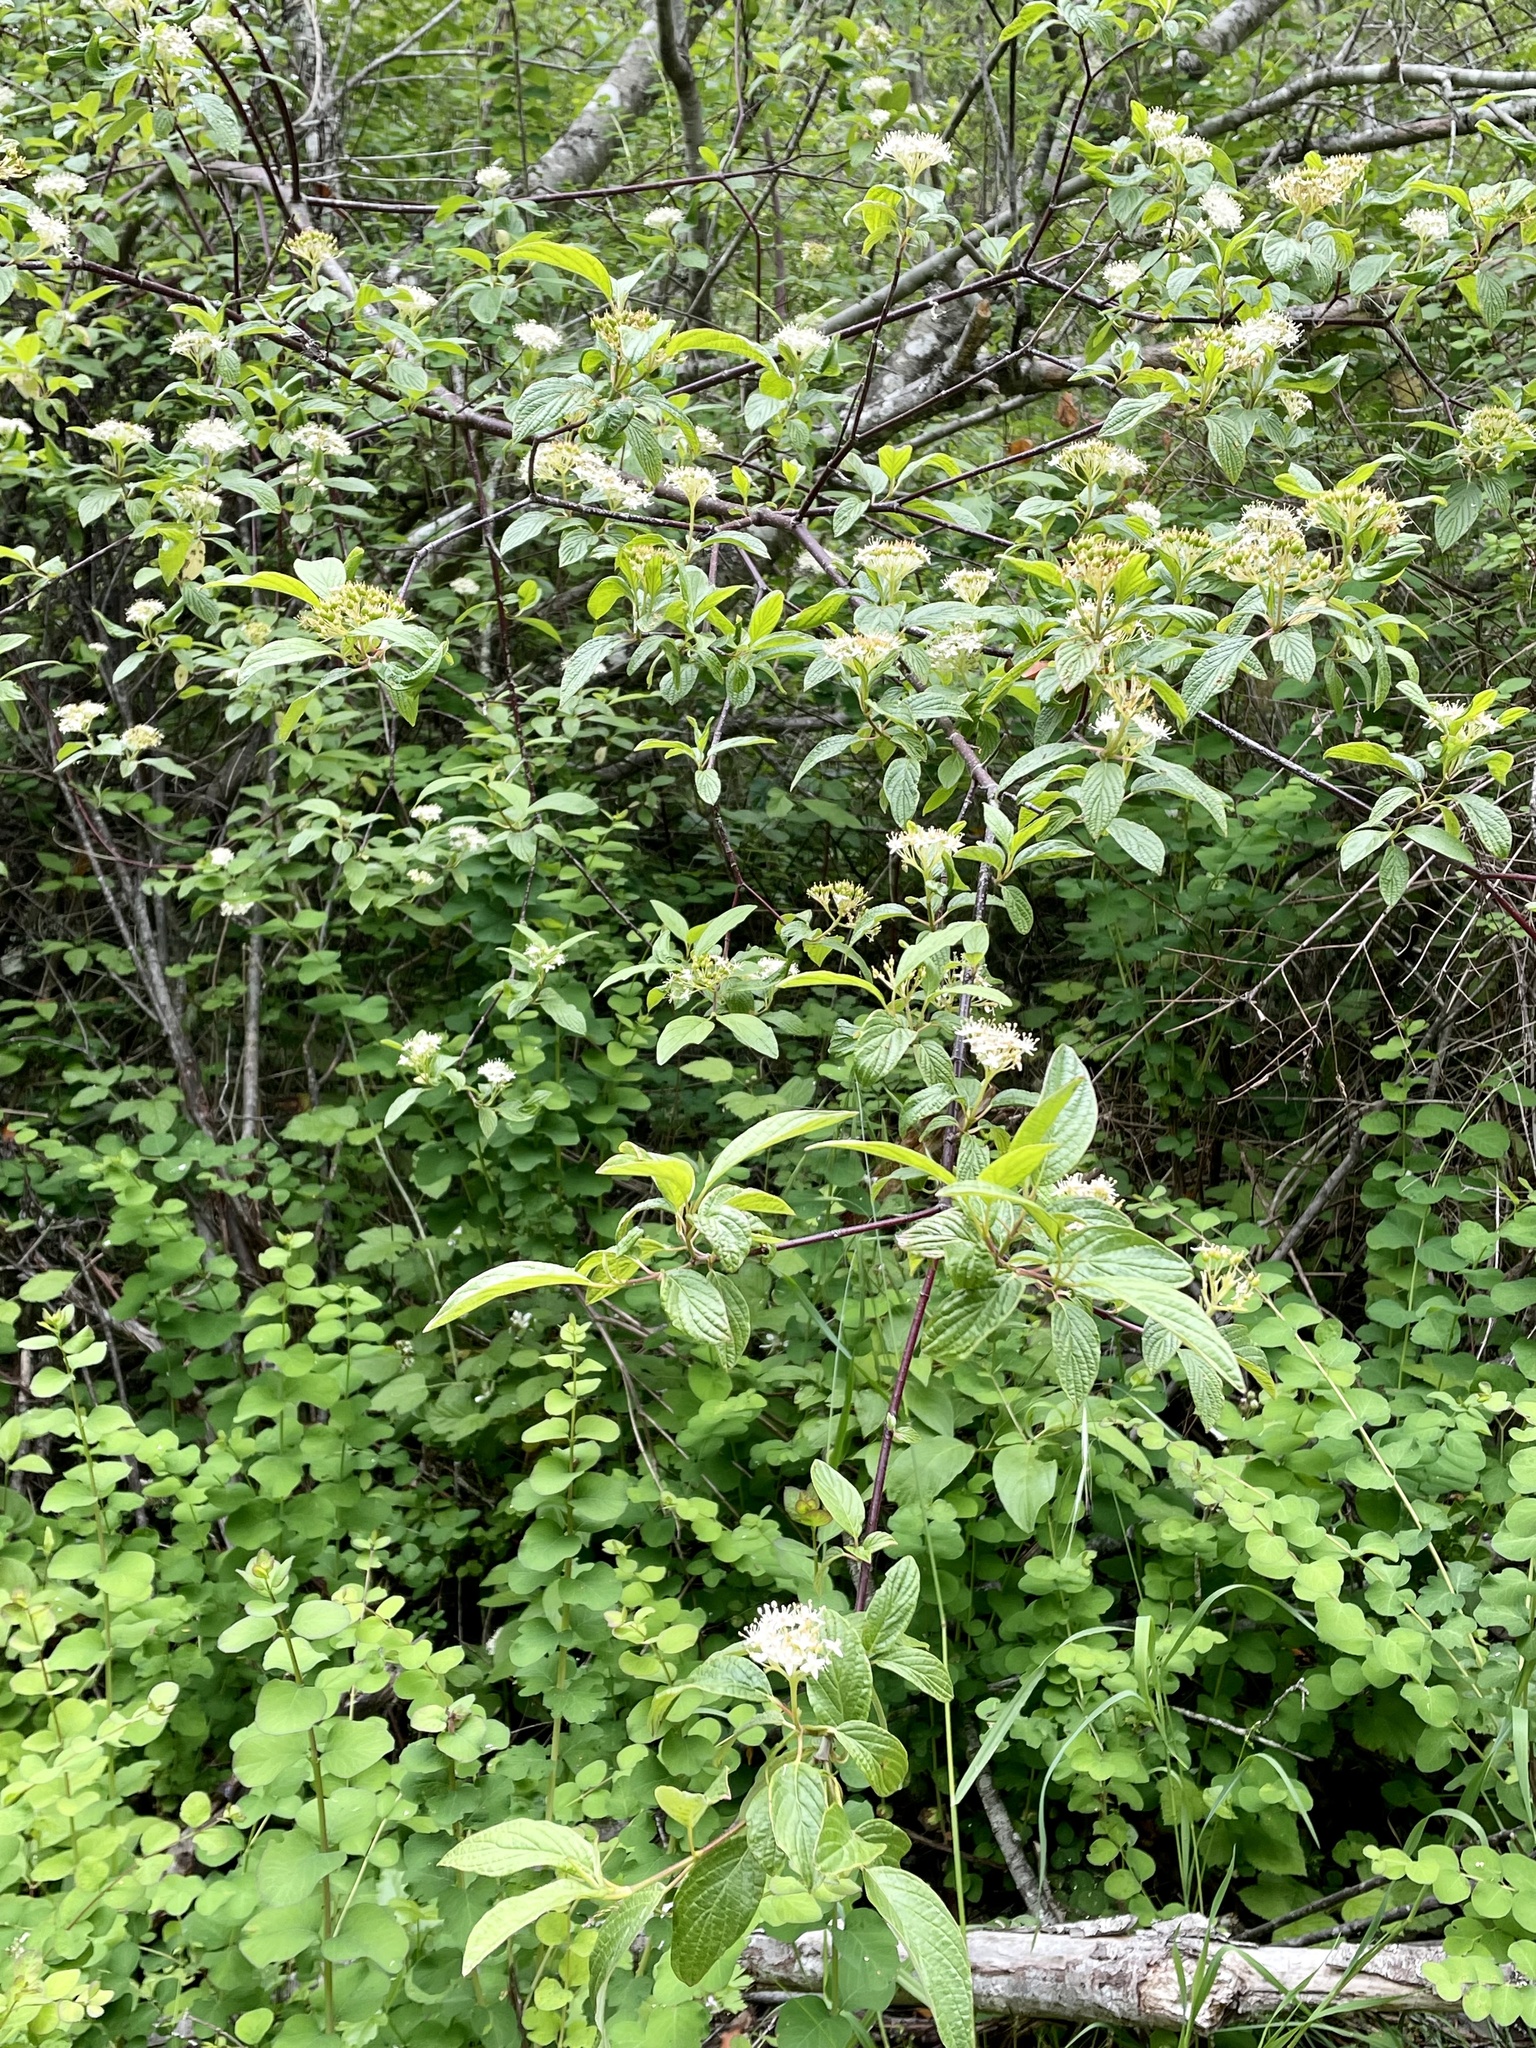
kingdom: Plantae
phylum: Tracheophyta
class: Magnoliopsida
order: Cornales
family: Cornaceae
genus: Cornus
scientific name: Cornus sericea
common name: Red-osier dogwood
